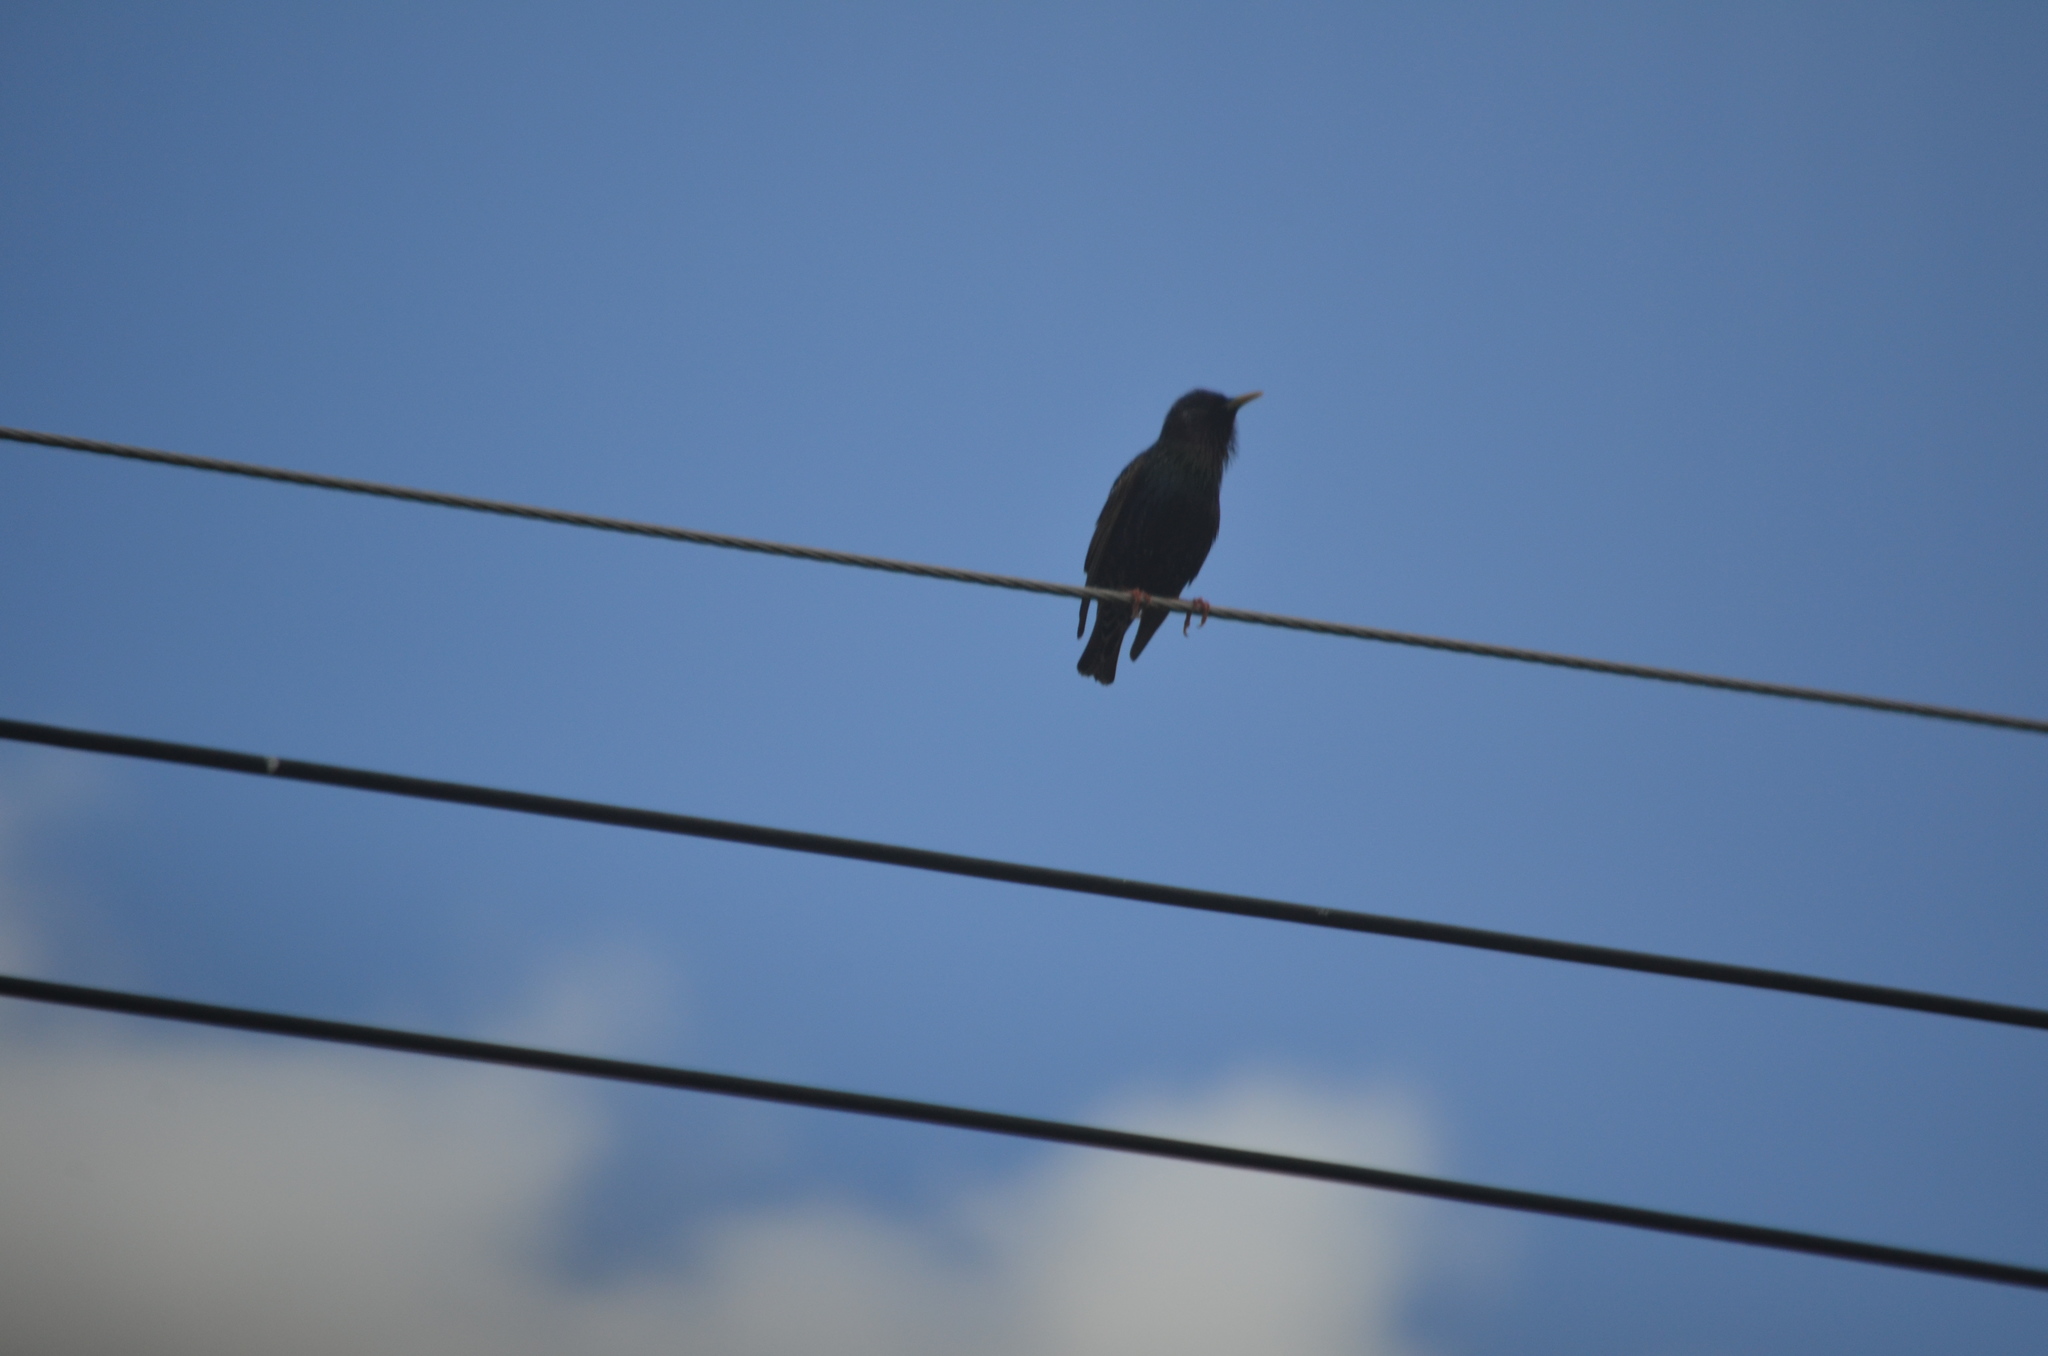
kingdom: Animalia
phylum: Chordata
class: Aves
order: Passeriformes
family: Sturnidae
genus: Sturnus
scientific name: Sturnus vulgaris
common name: Common starling
